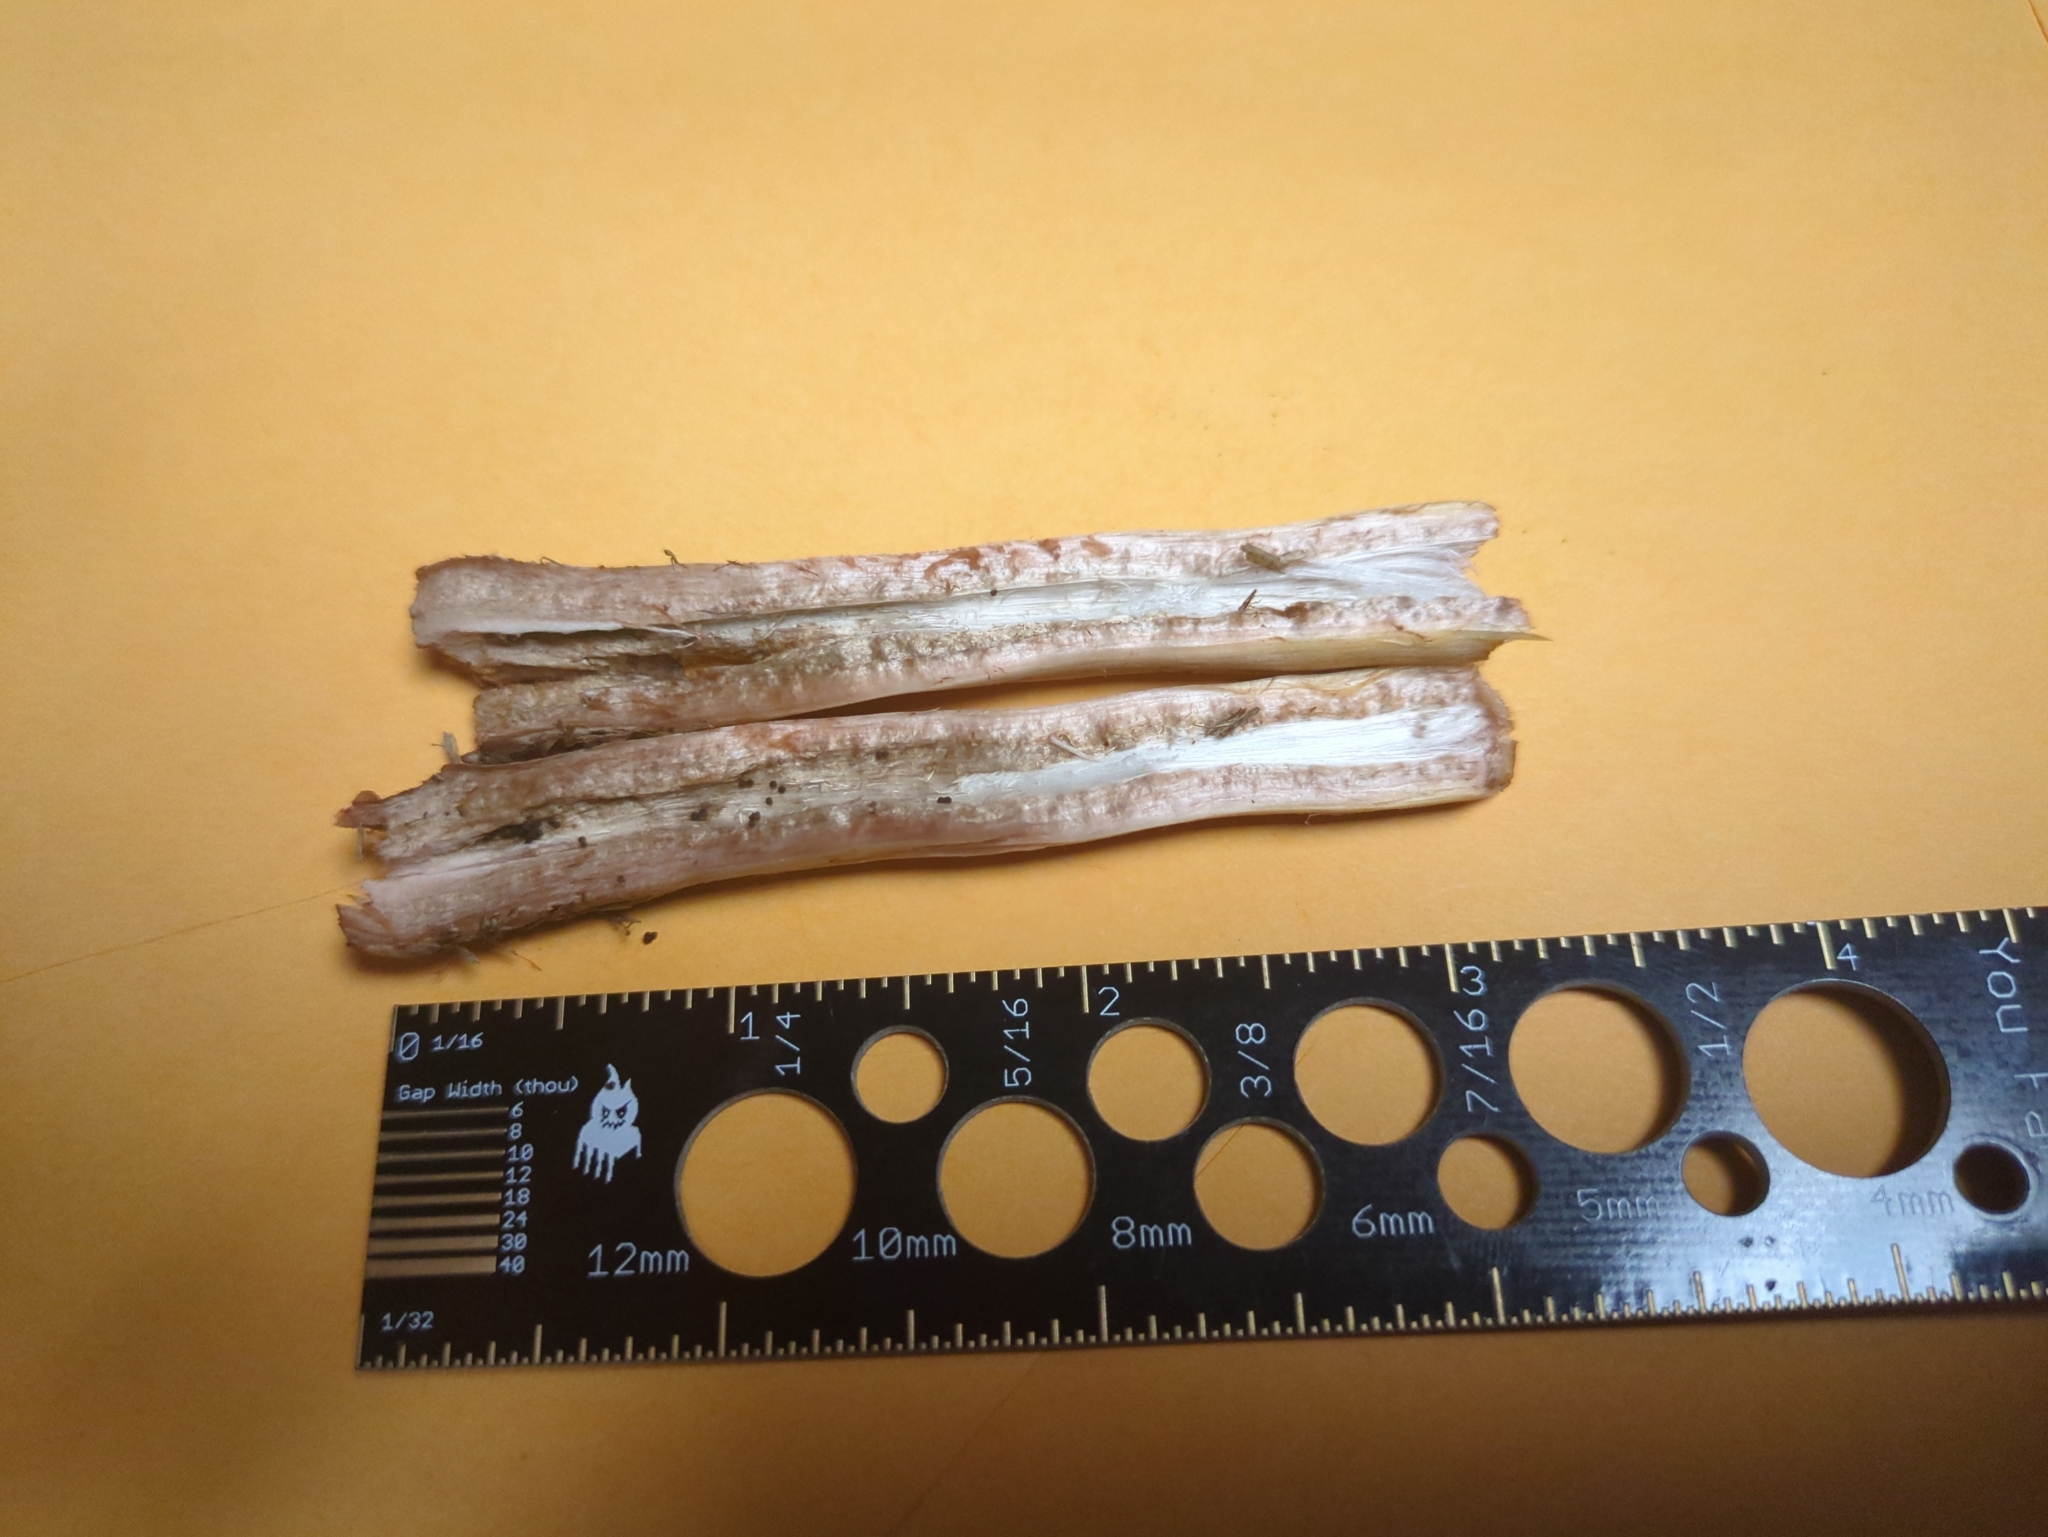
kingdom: Fungi
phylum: Basidiomycota
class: Agaricomycetes
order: Agaricales
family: Agaricaceae
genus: Chlorophyllum
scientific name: Chlorophyllum molybdites
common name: False parasol
